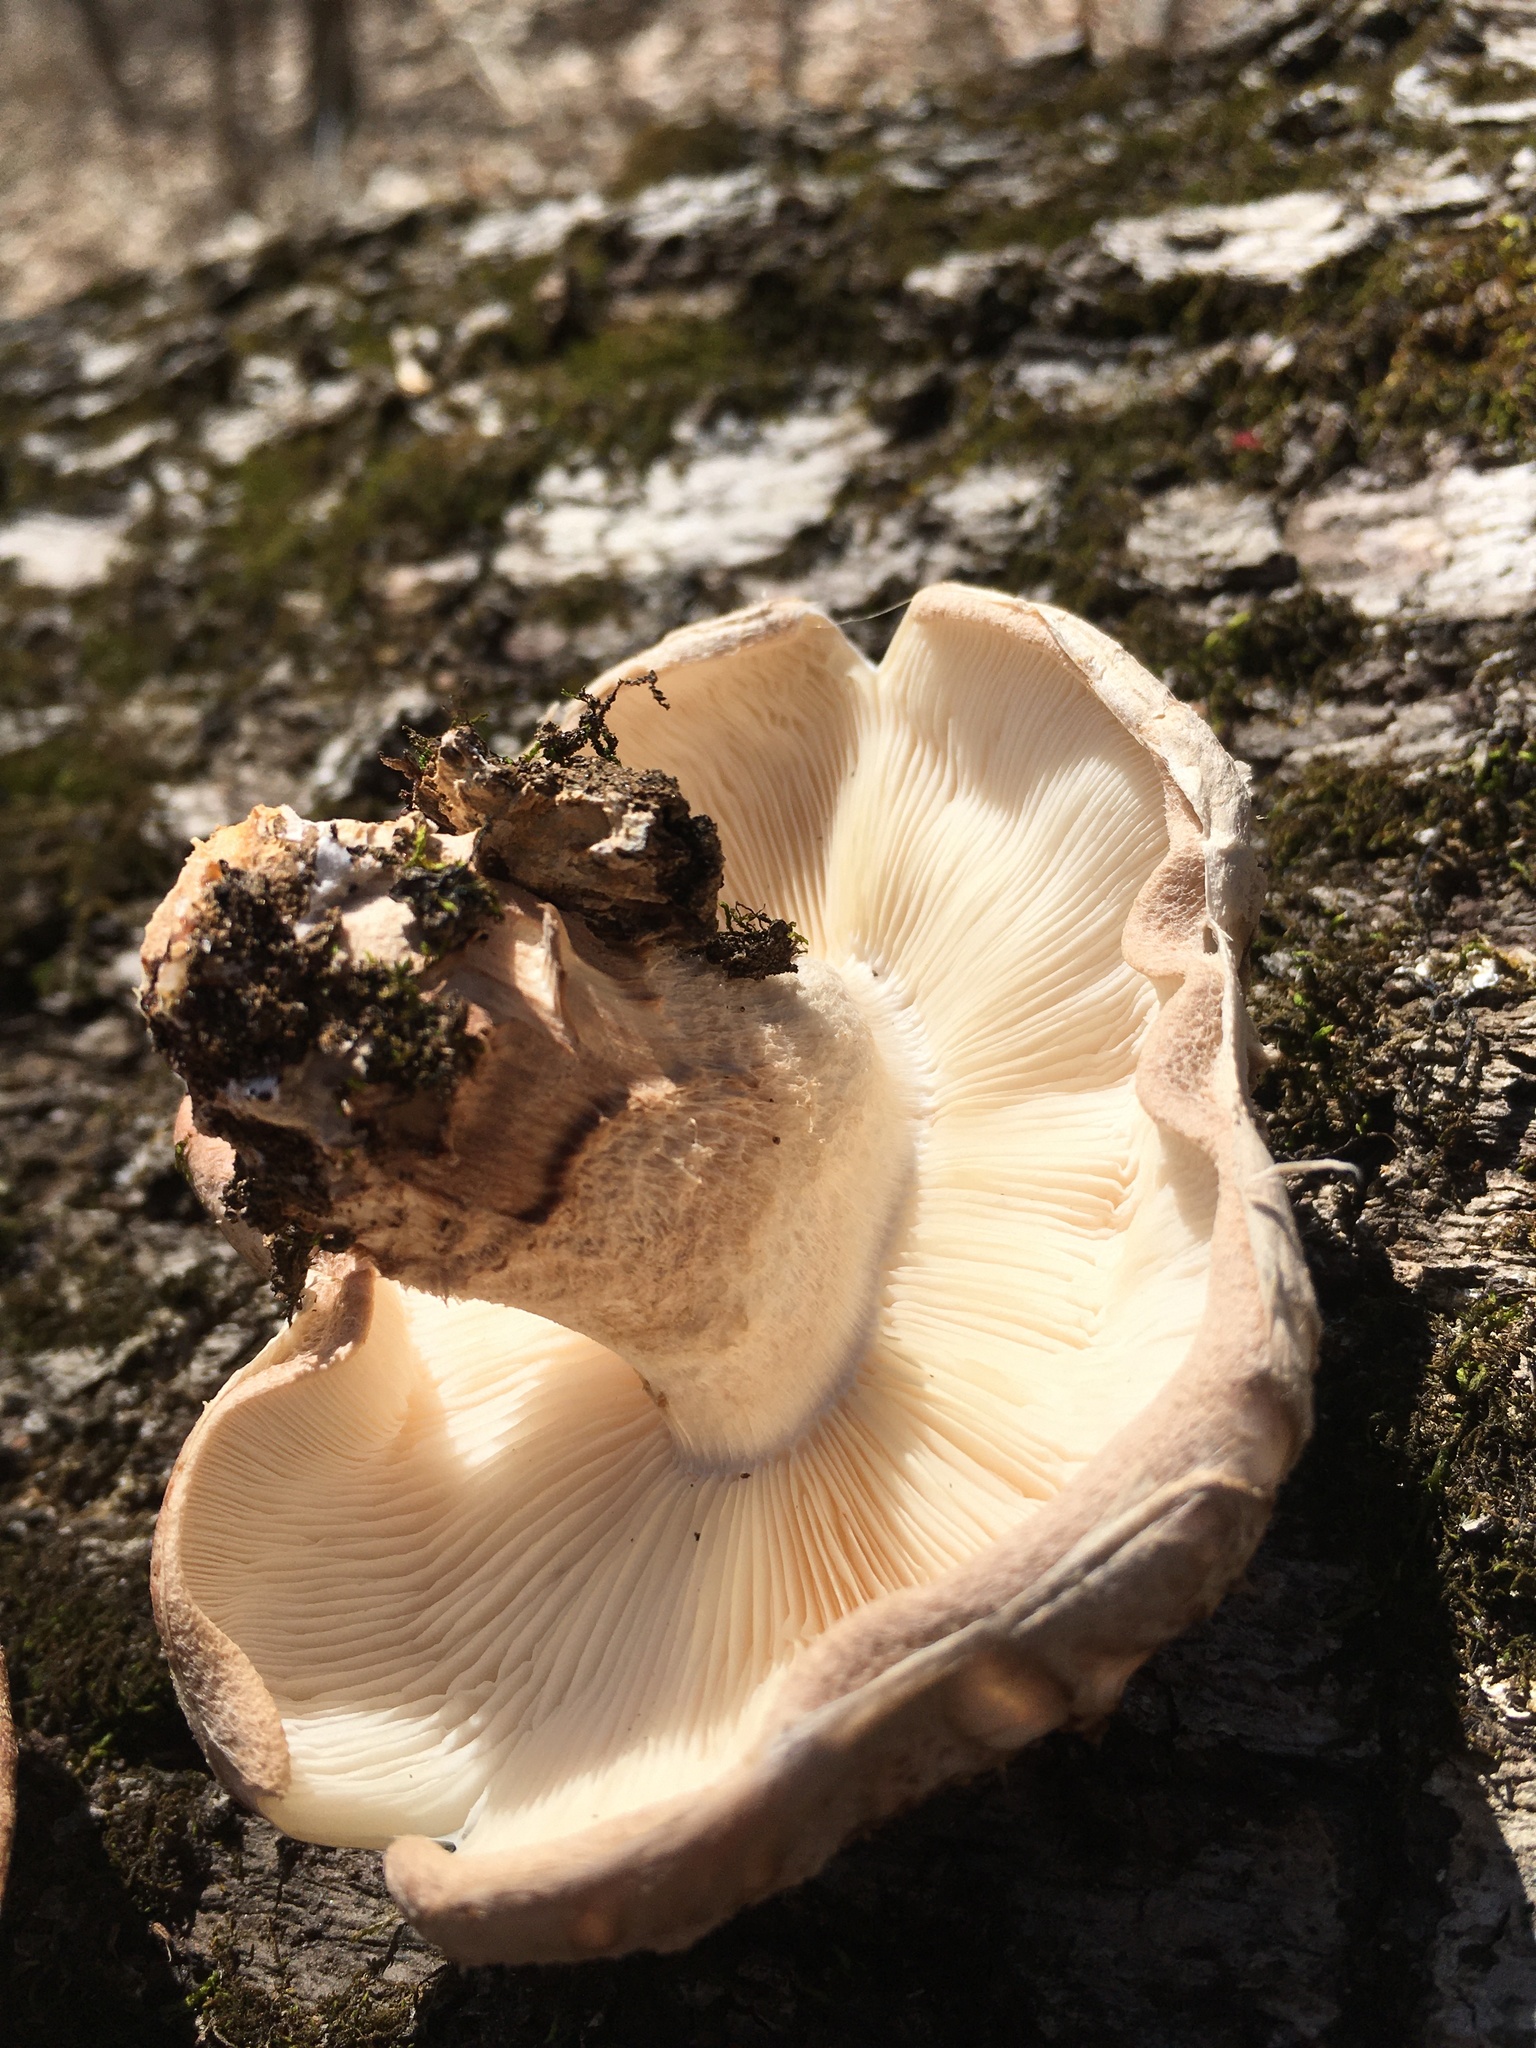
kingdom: Fungi
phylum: Basidiomycota
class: Agaricomycetes
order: Agaricales
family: Omphalotaceae
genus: Lentinula
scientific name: Lentinula edodes
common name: Shiitake
